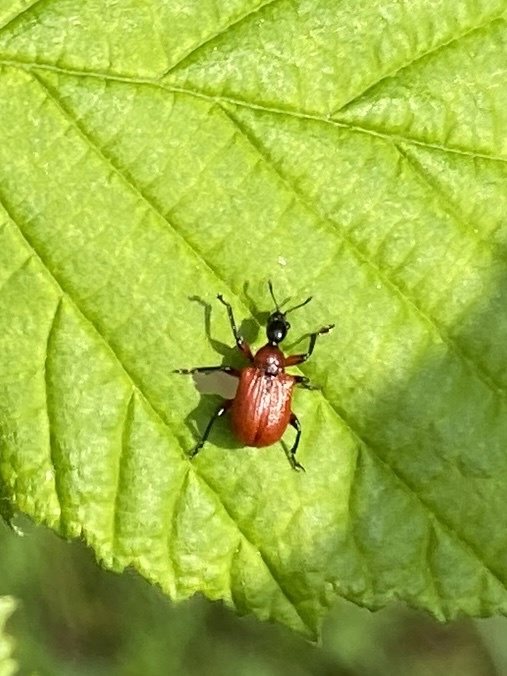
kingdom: Animalia
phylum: Arthropoda
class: Insecta
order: Coleoptera
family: Attelabidae
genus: Apoderus
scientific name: Apoderus coryli
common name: Hazel leaf roller
